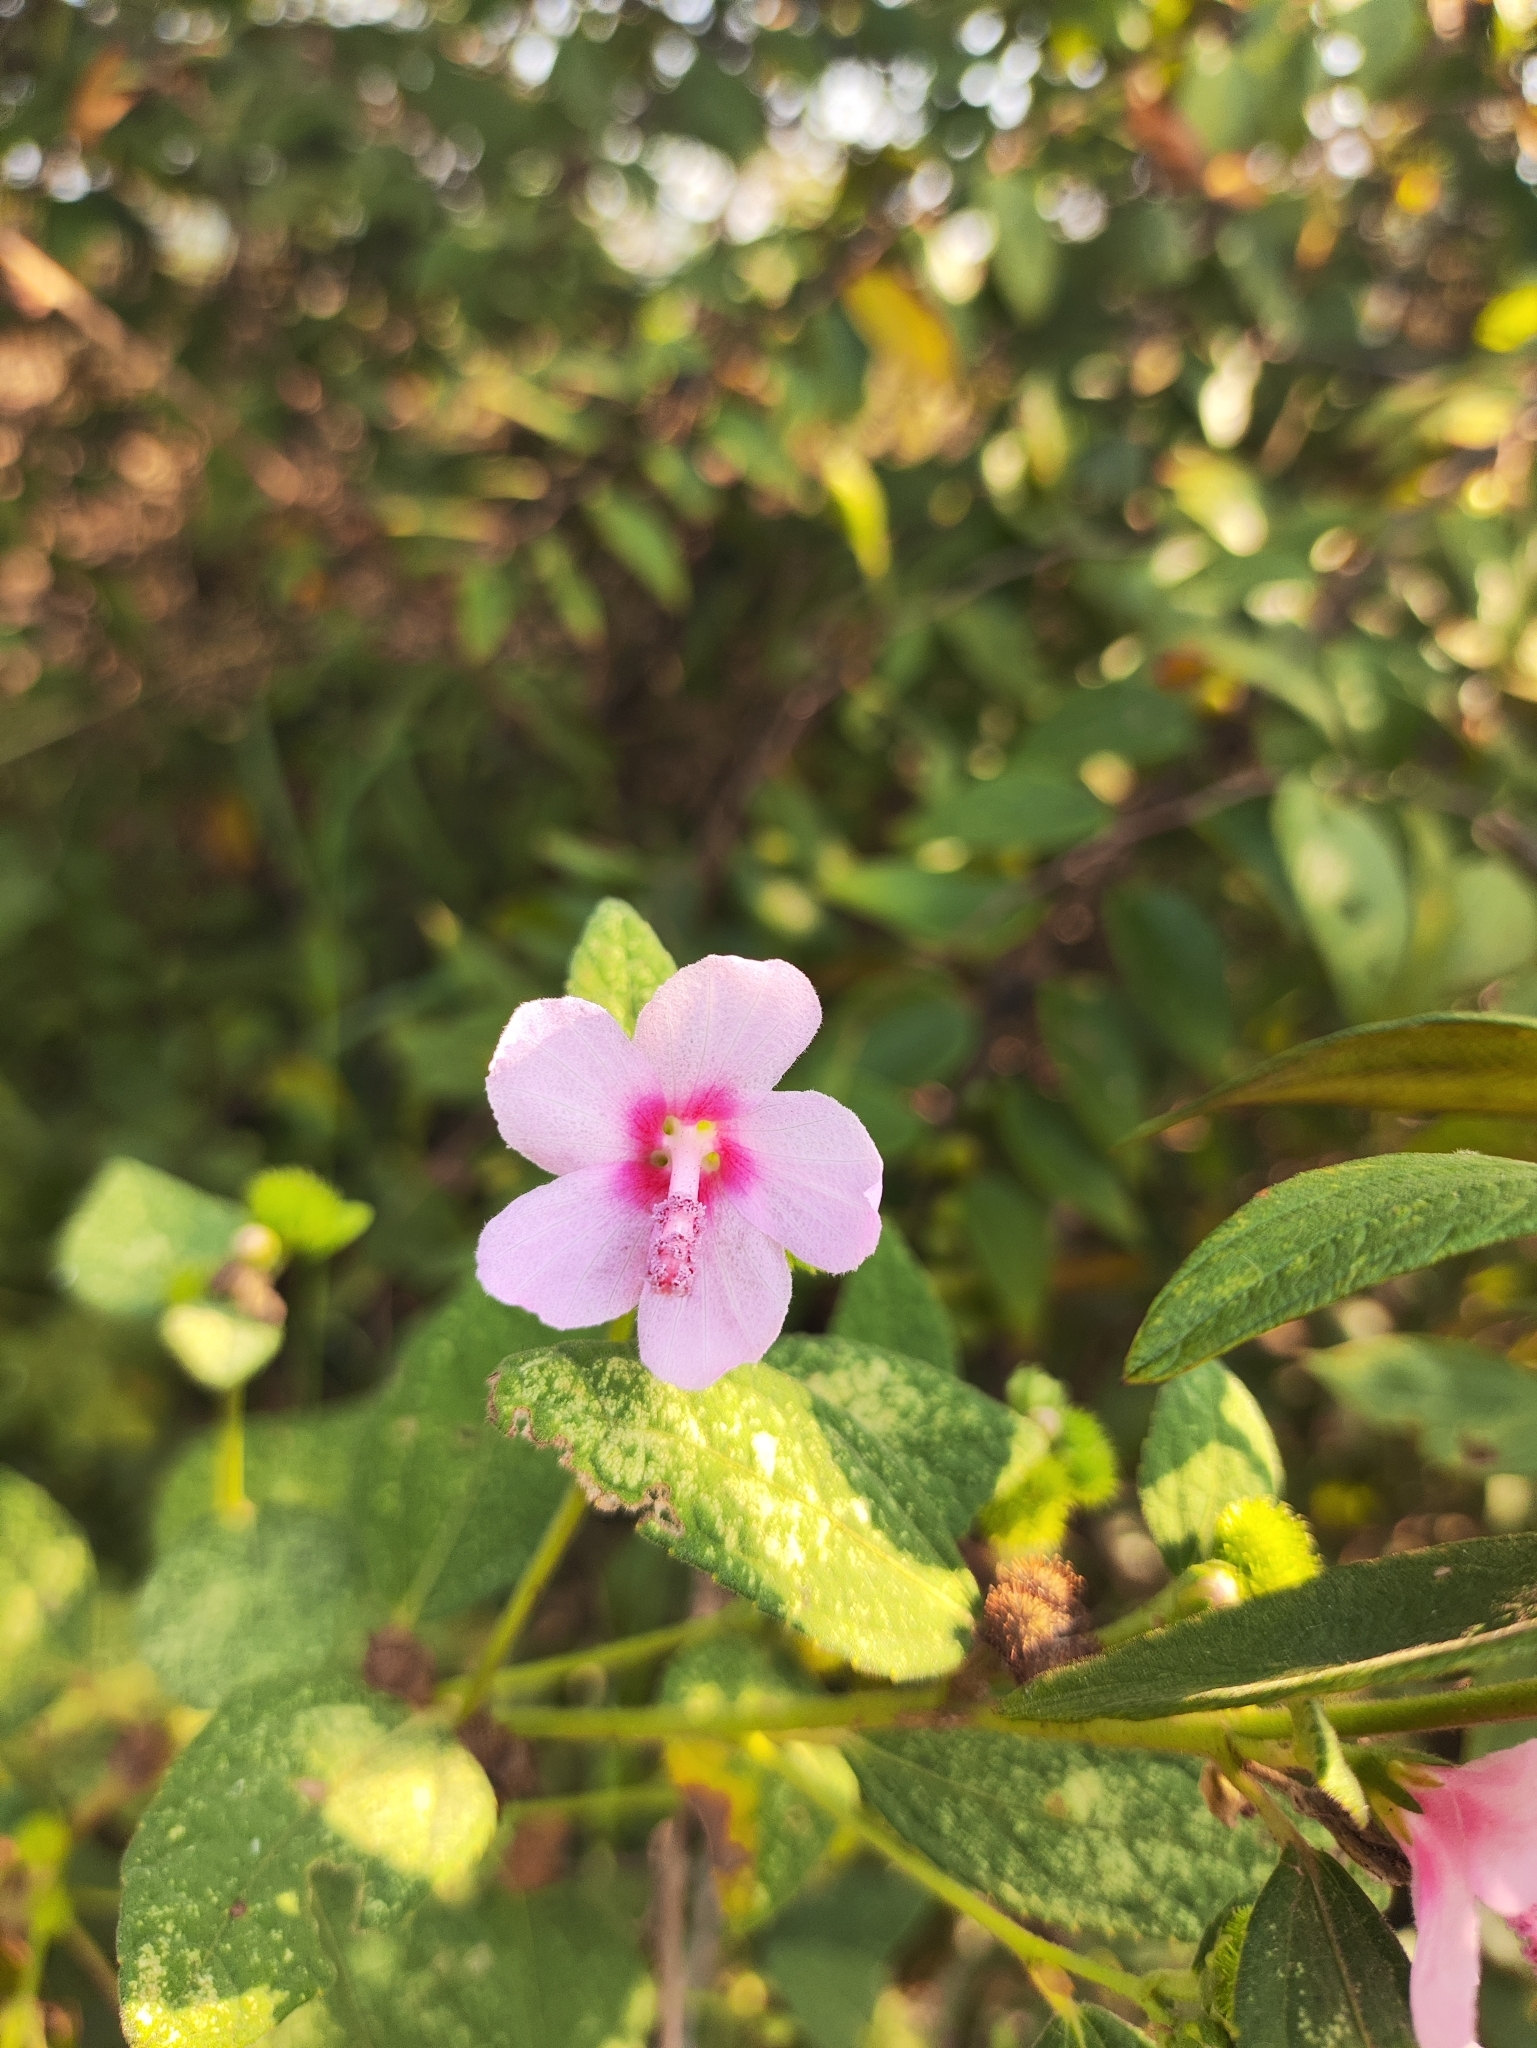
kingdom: Plantae
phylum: Tracheophyta
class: Magnoliopsida
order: Malvales
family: Malvaceae
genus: Urena
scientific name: Urena lobata
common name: Caesarweed
